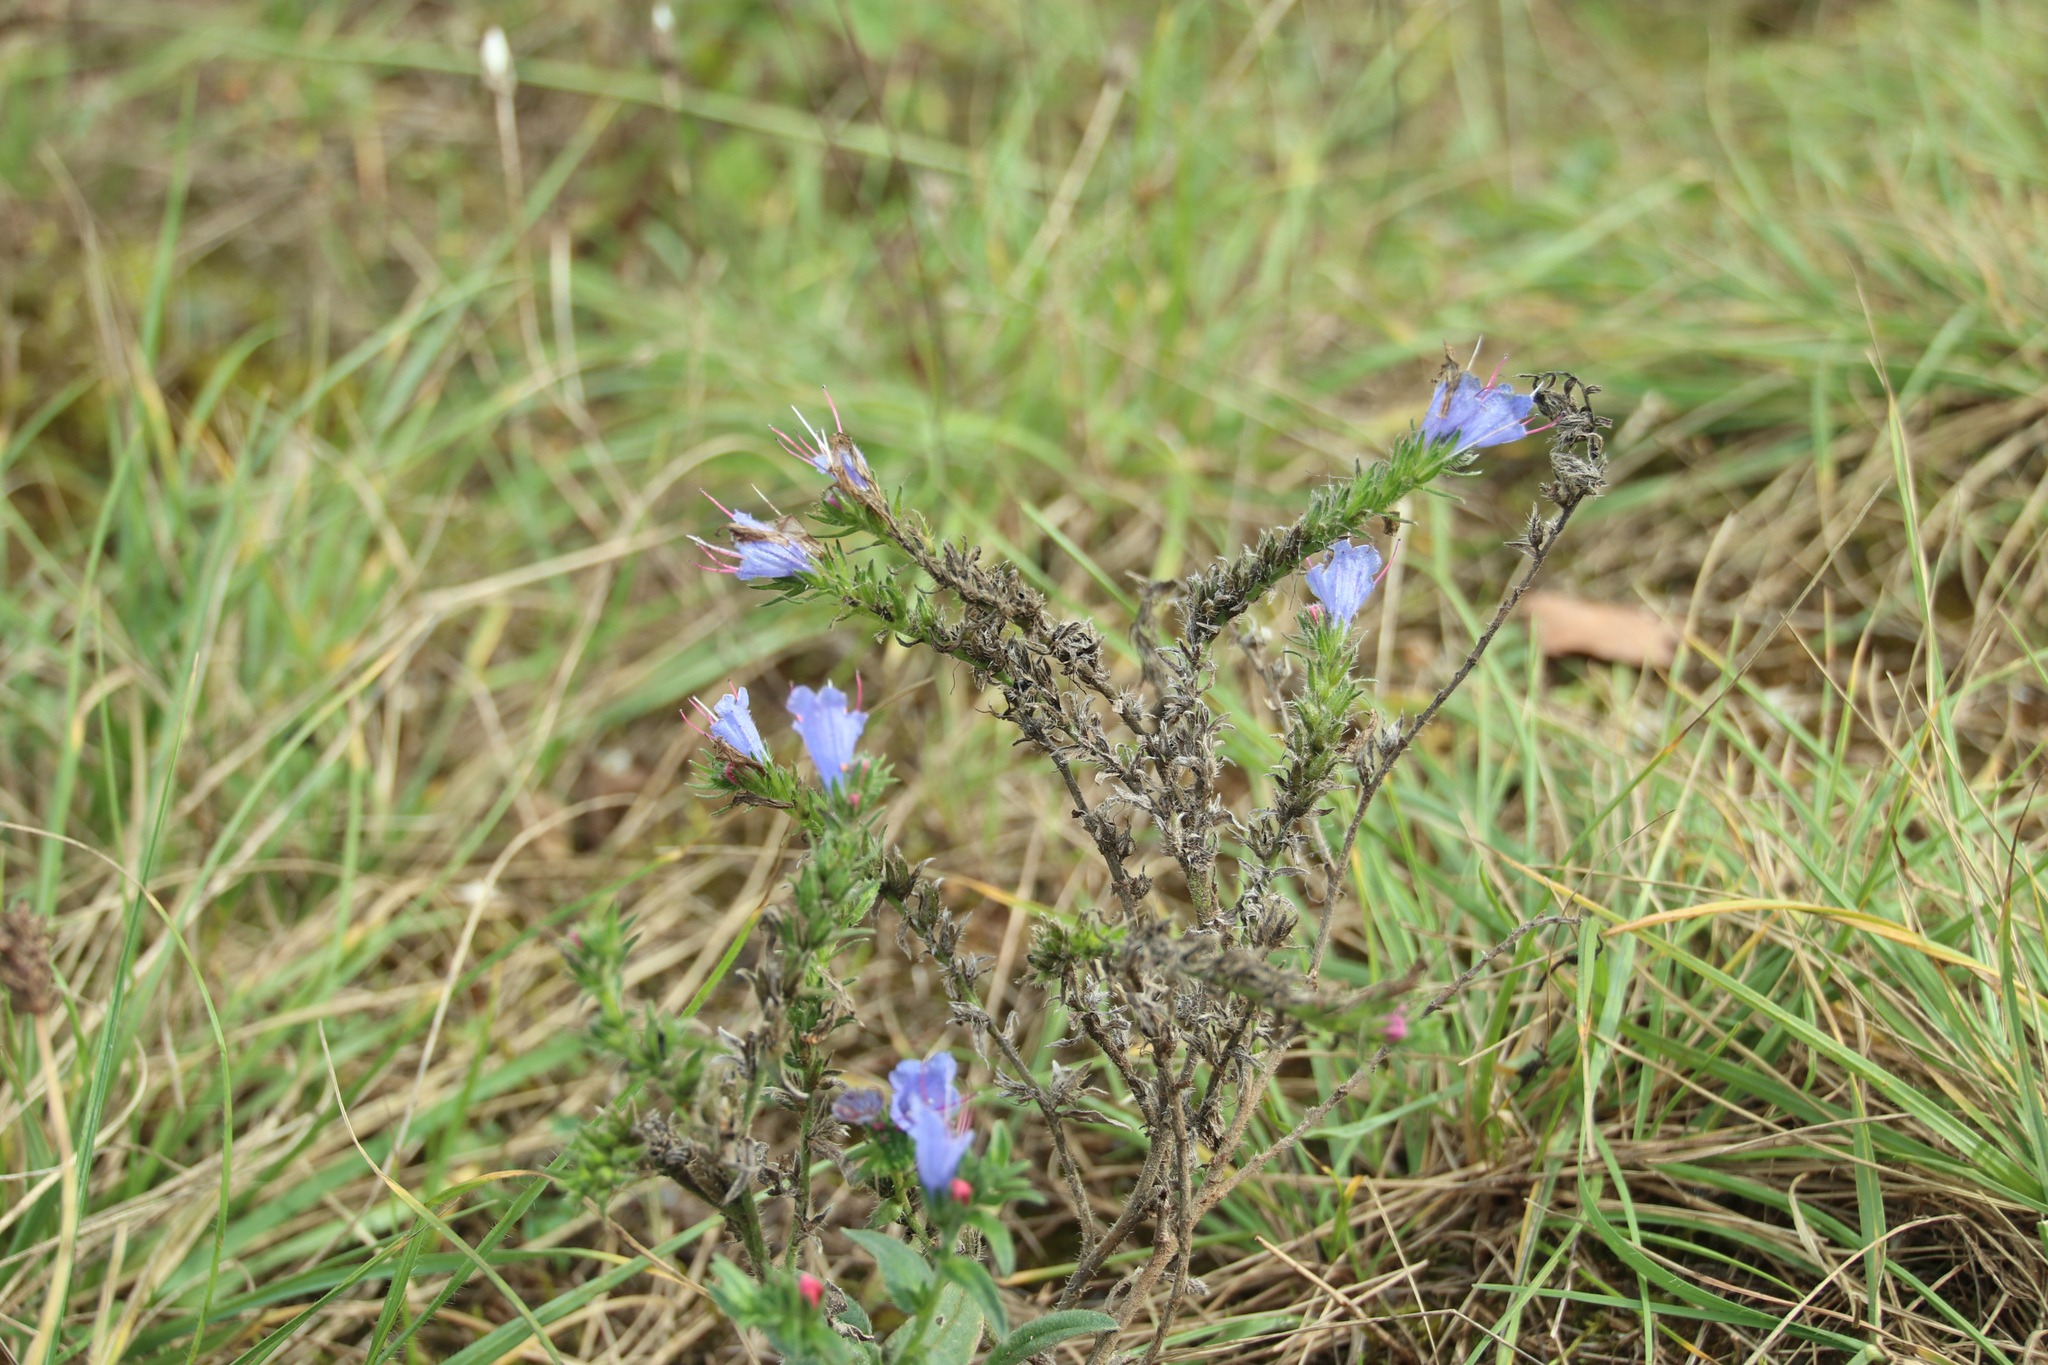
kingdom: Plantae
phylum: Tracheophyta
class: Magnoliopsida
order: Boraginales
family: Boraginaceae
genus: Echium
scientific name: Echium vulgare
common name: Common viper's bugloss
